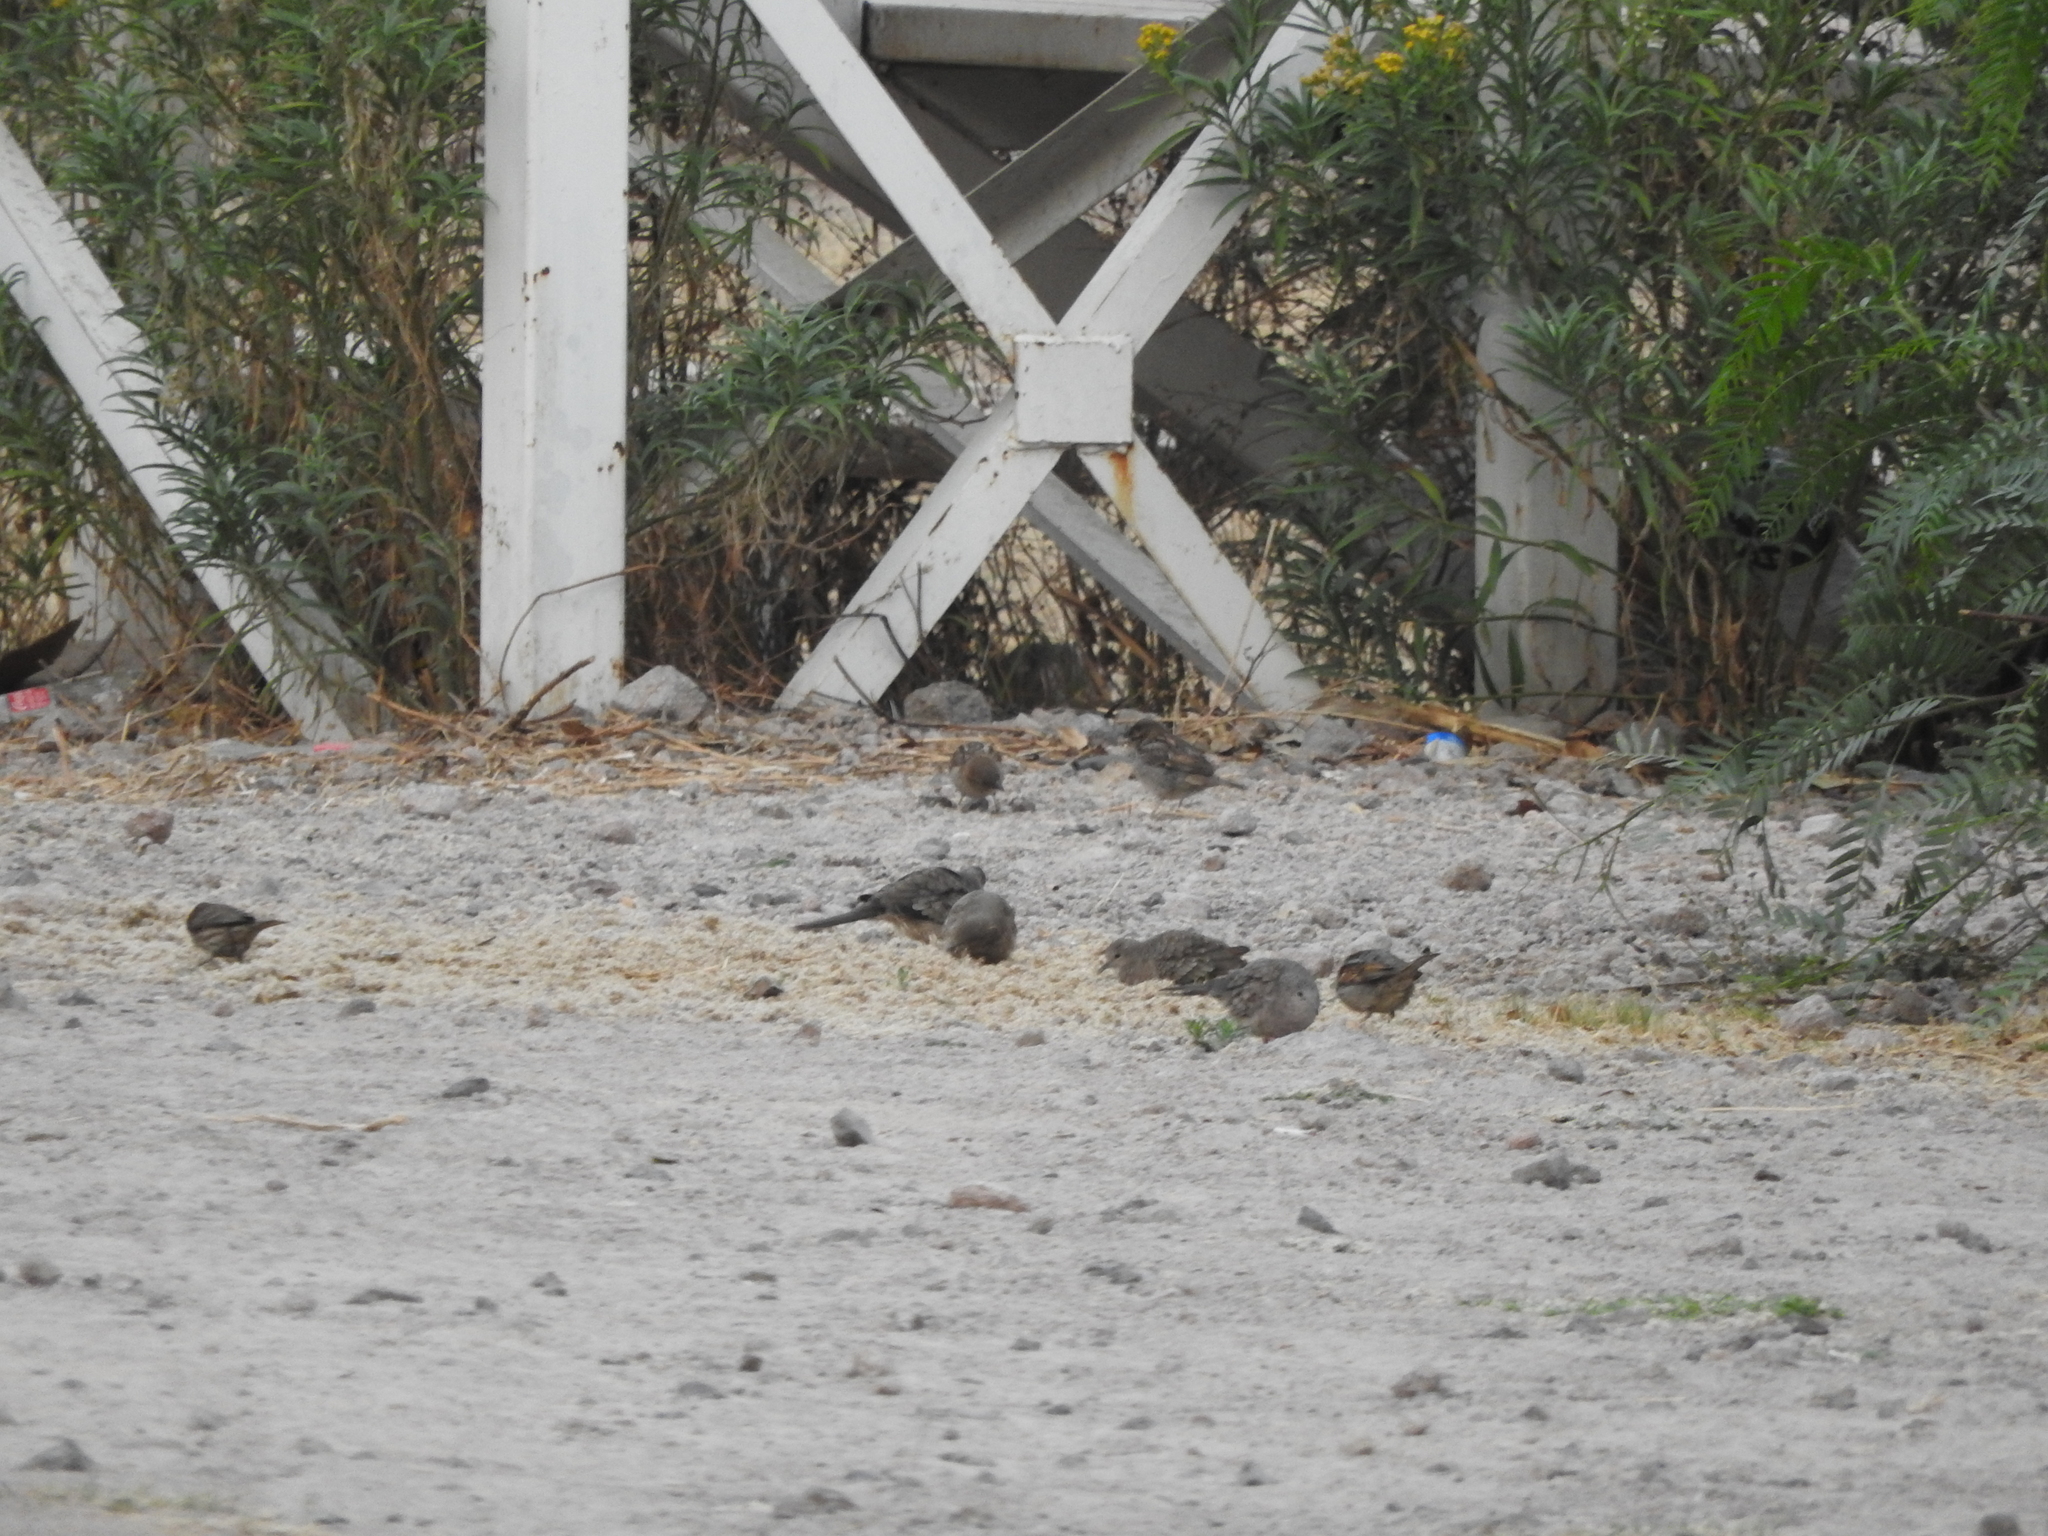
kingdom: Animalia
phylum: Chordata
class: Aves
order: Columbiformes
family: Columbidae
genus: Columbina
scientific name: Columbina inca
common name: Inca dove
